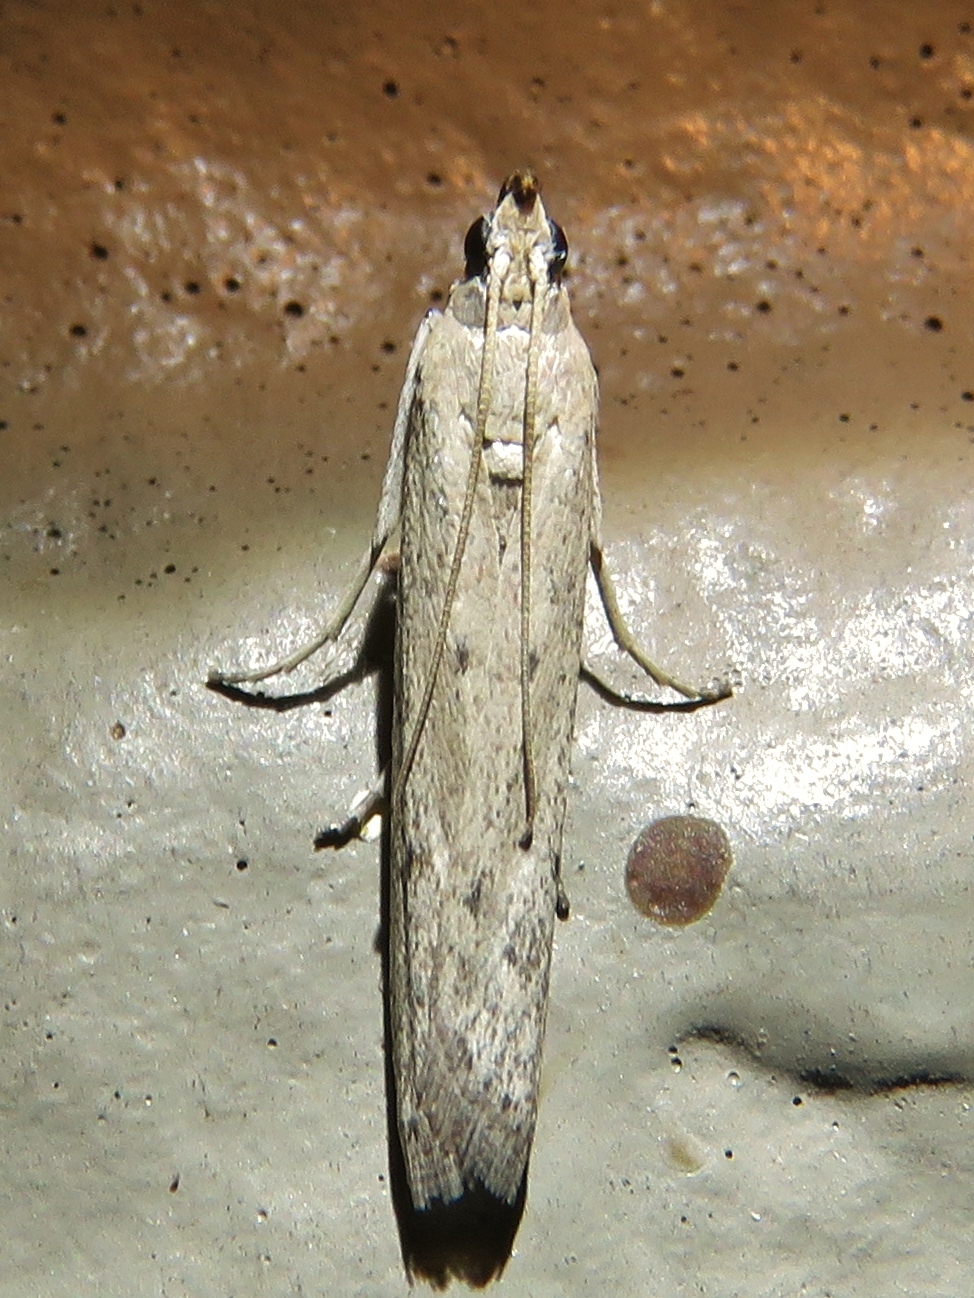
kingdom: Animalia
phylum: Arthropoda
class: Insecta
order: Lepidoptera
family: Pyralidae
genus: Homoeosoma
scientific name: Homoeosoma electella
